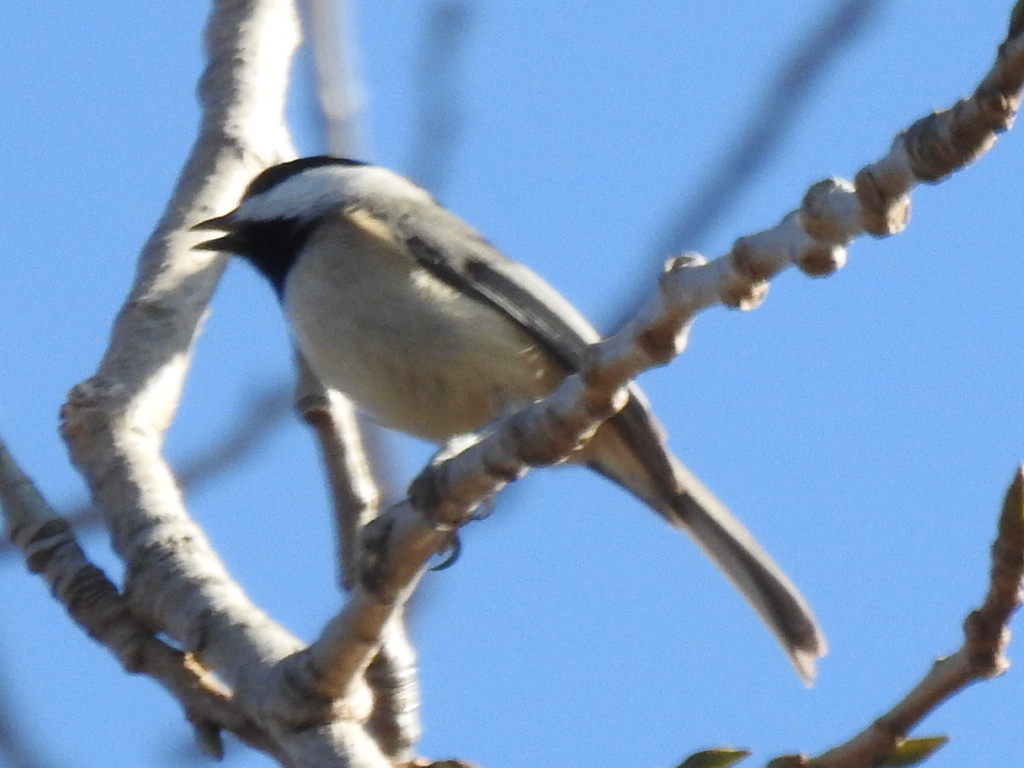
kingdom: Animalia
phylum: Chordata
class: Aves
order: Passeriformes
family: Paridae
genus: Poecile
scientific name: Poecile carolinensis
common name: Carolina chickadee
